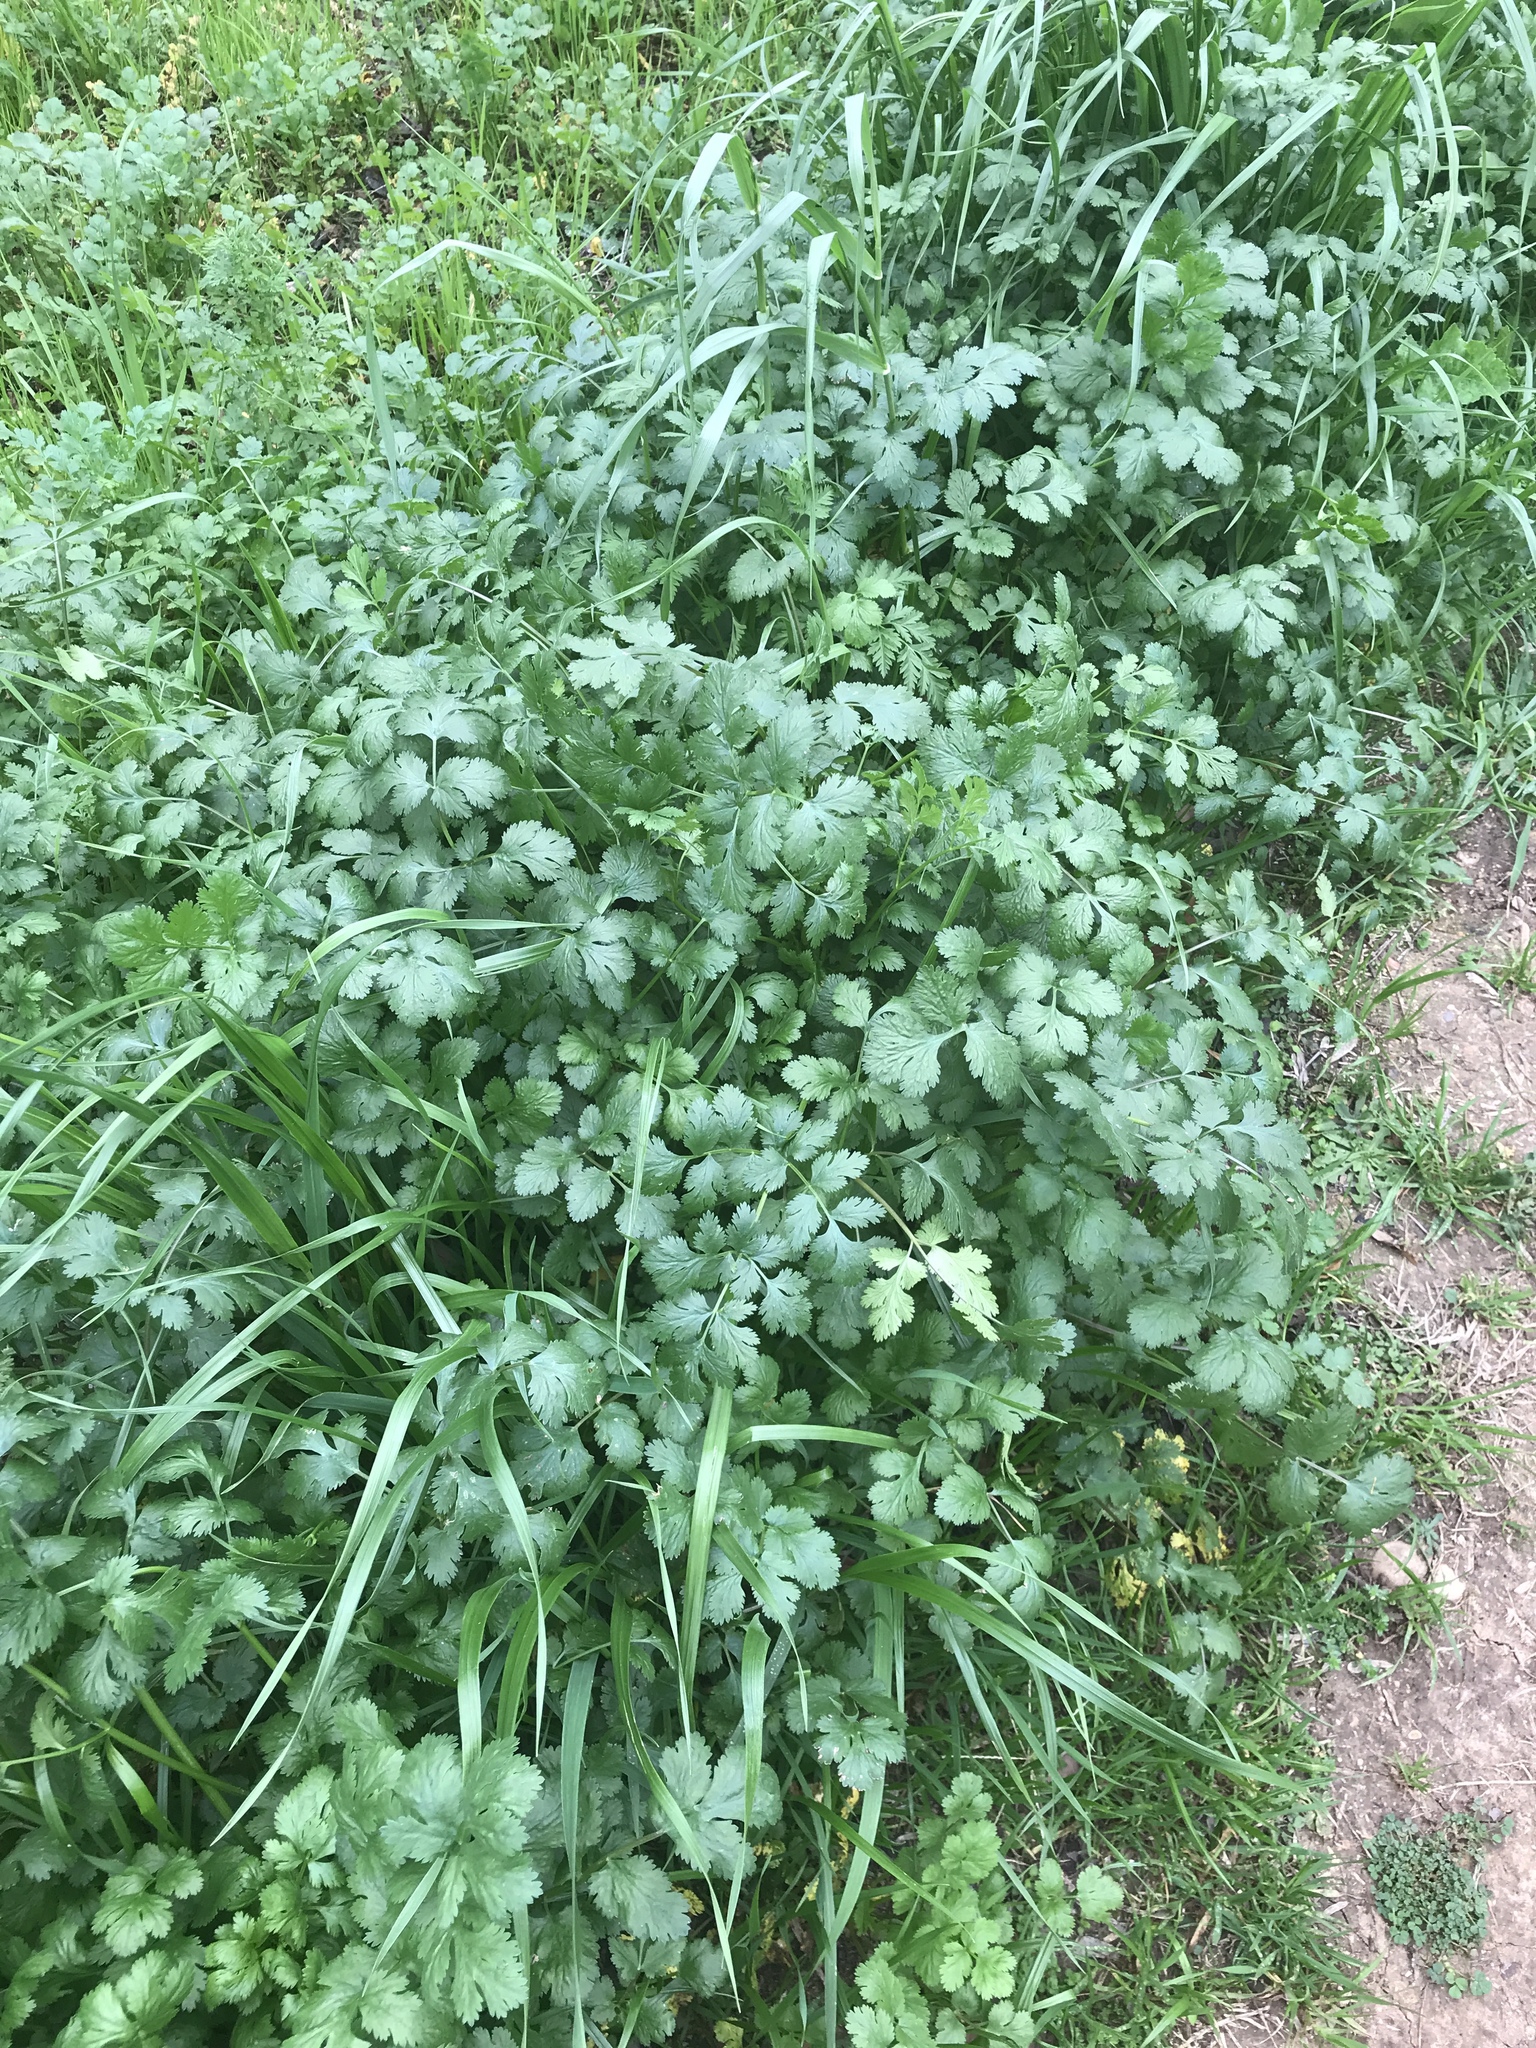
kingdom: Plantae
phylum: Tracheophyta
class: Magnoliopsida
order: Apiales
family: Apiaceae
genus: Coriandrum
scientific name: Coriandrum sativum
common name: Coriander
